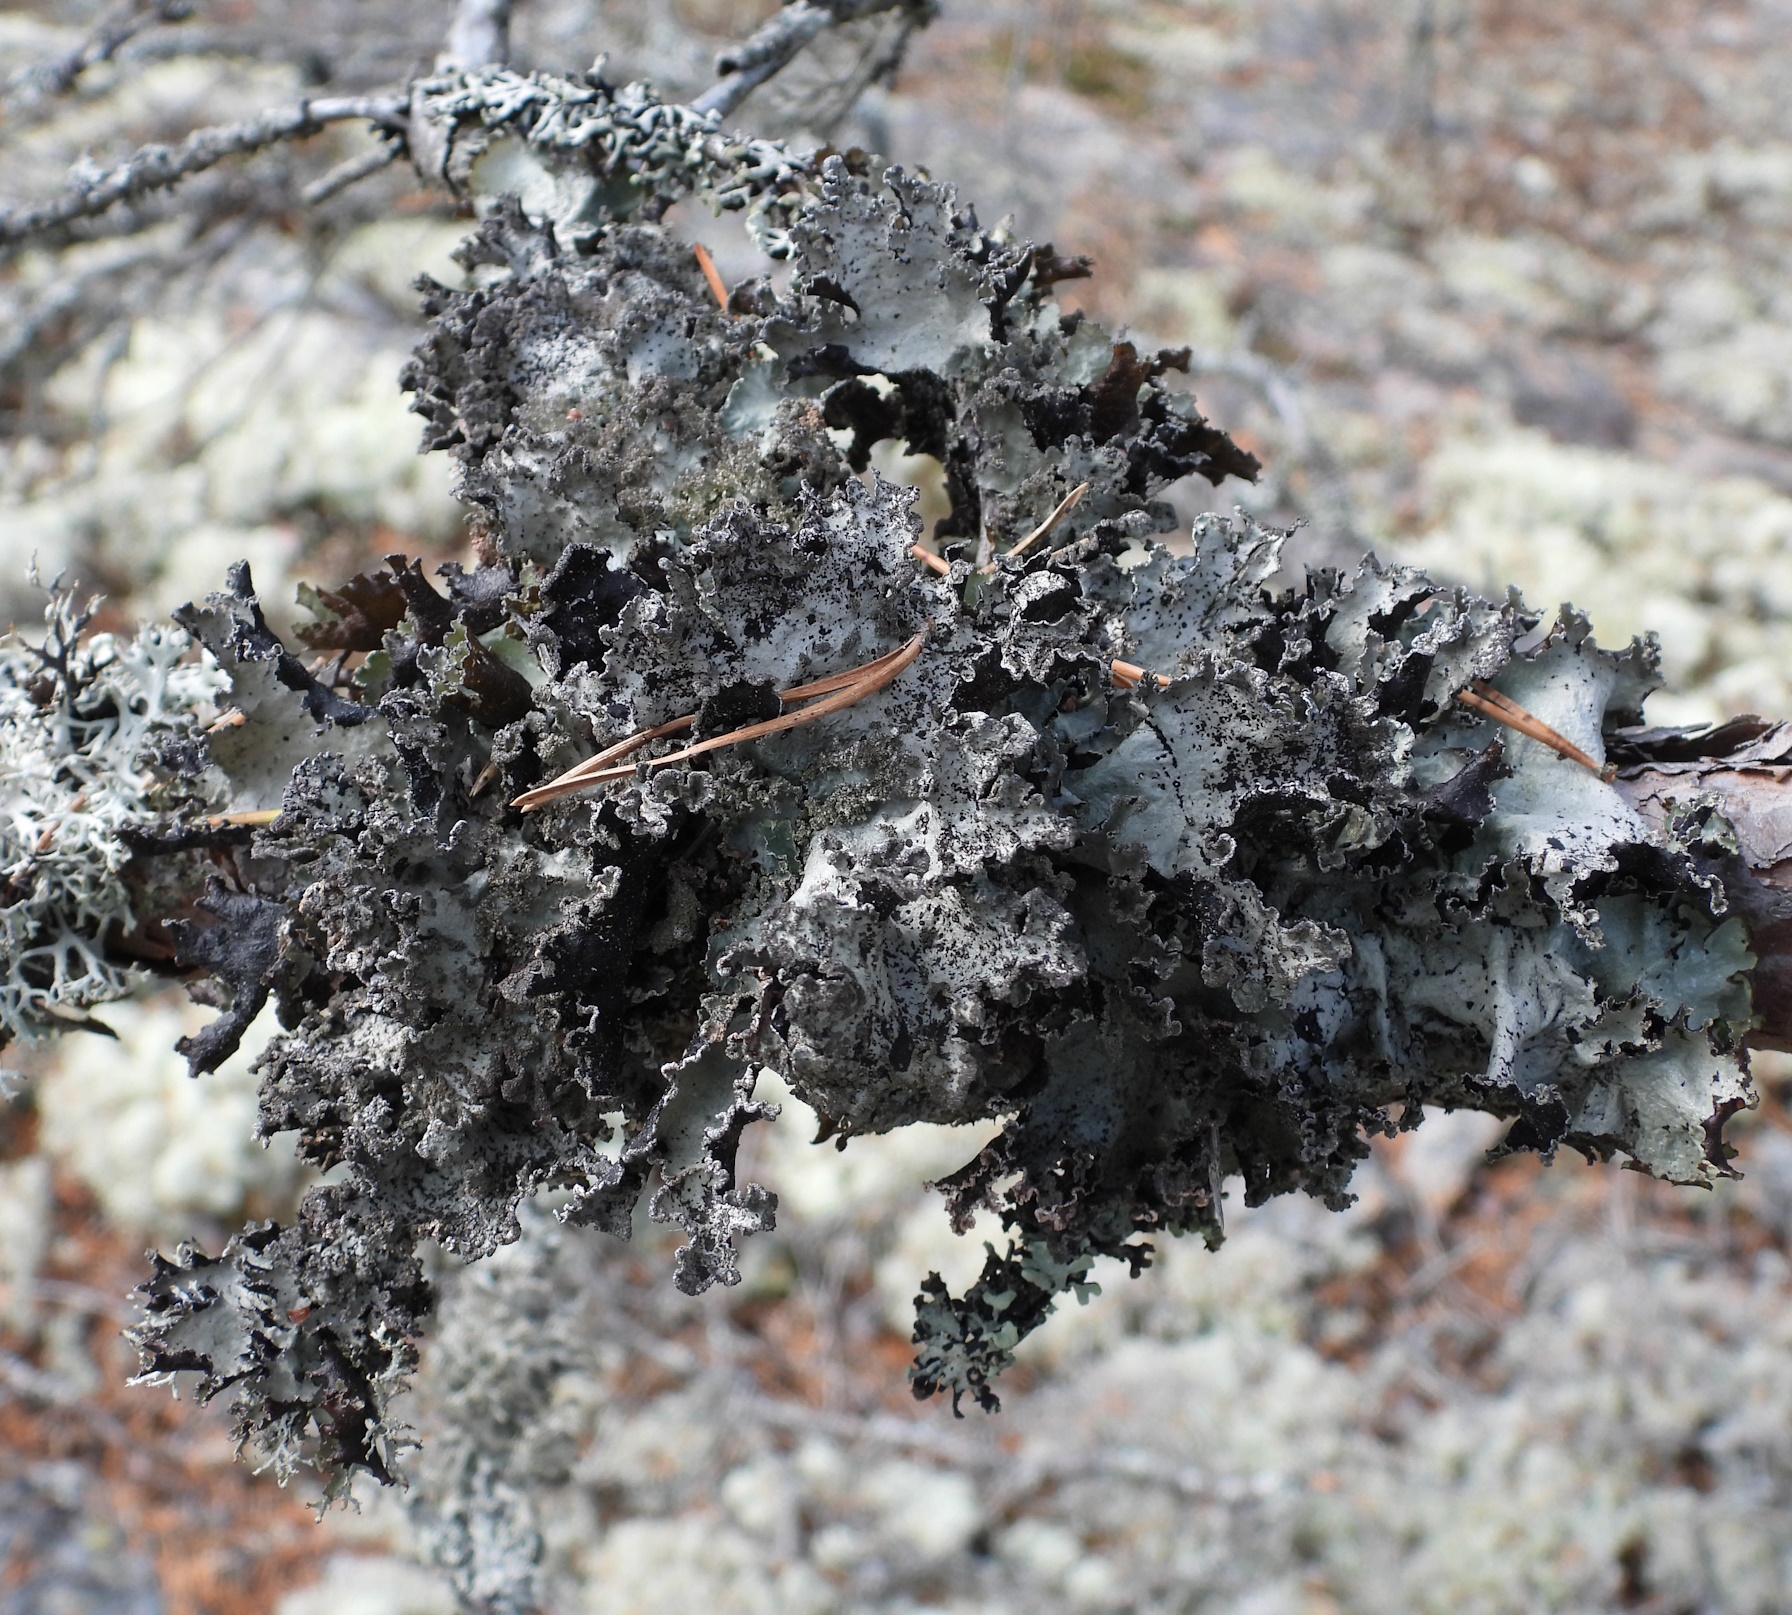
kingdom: Fungi
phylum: Ascomycota
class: Lecanoromycetes
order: Lecanorales
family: Parmeliaceae
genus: Platismatia
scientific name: Platismatia glauca
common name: Varied rag lichen
